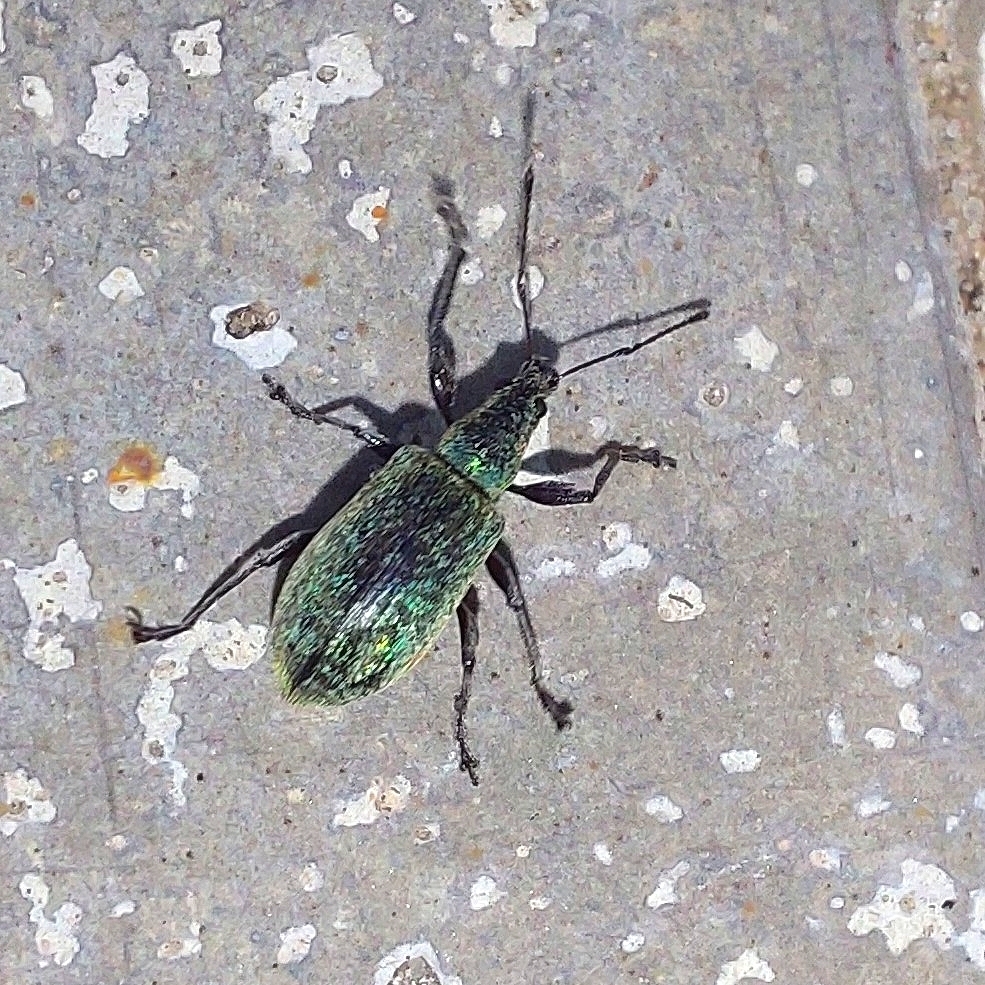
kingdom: Animalia
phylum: Arthropoda
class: Insecta
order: Coleoptera
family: Curculionidae
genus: Phyllobius
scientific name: Phyllobius pomaceus
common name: Green nettle weevil
